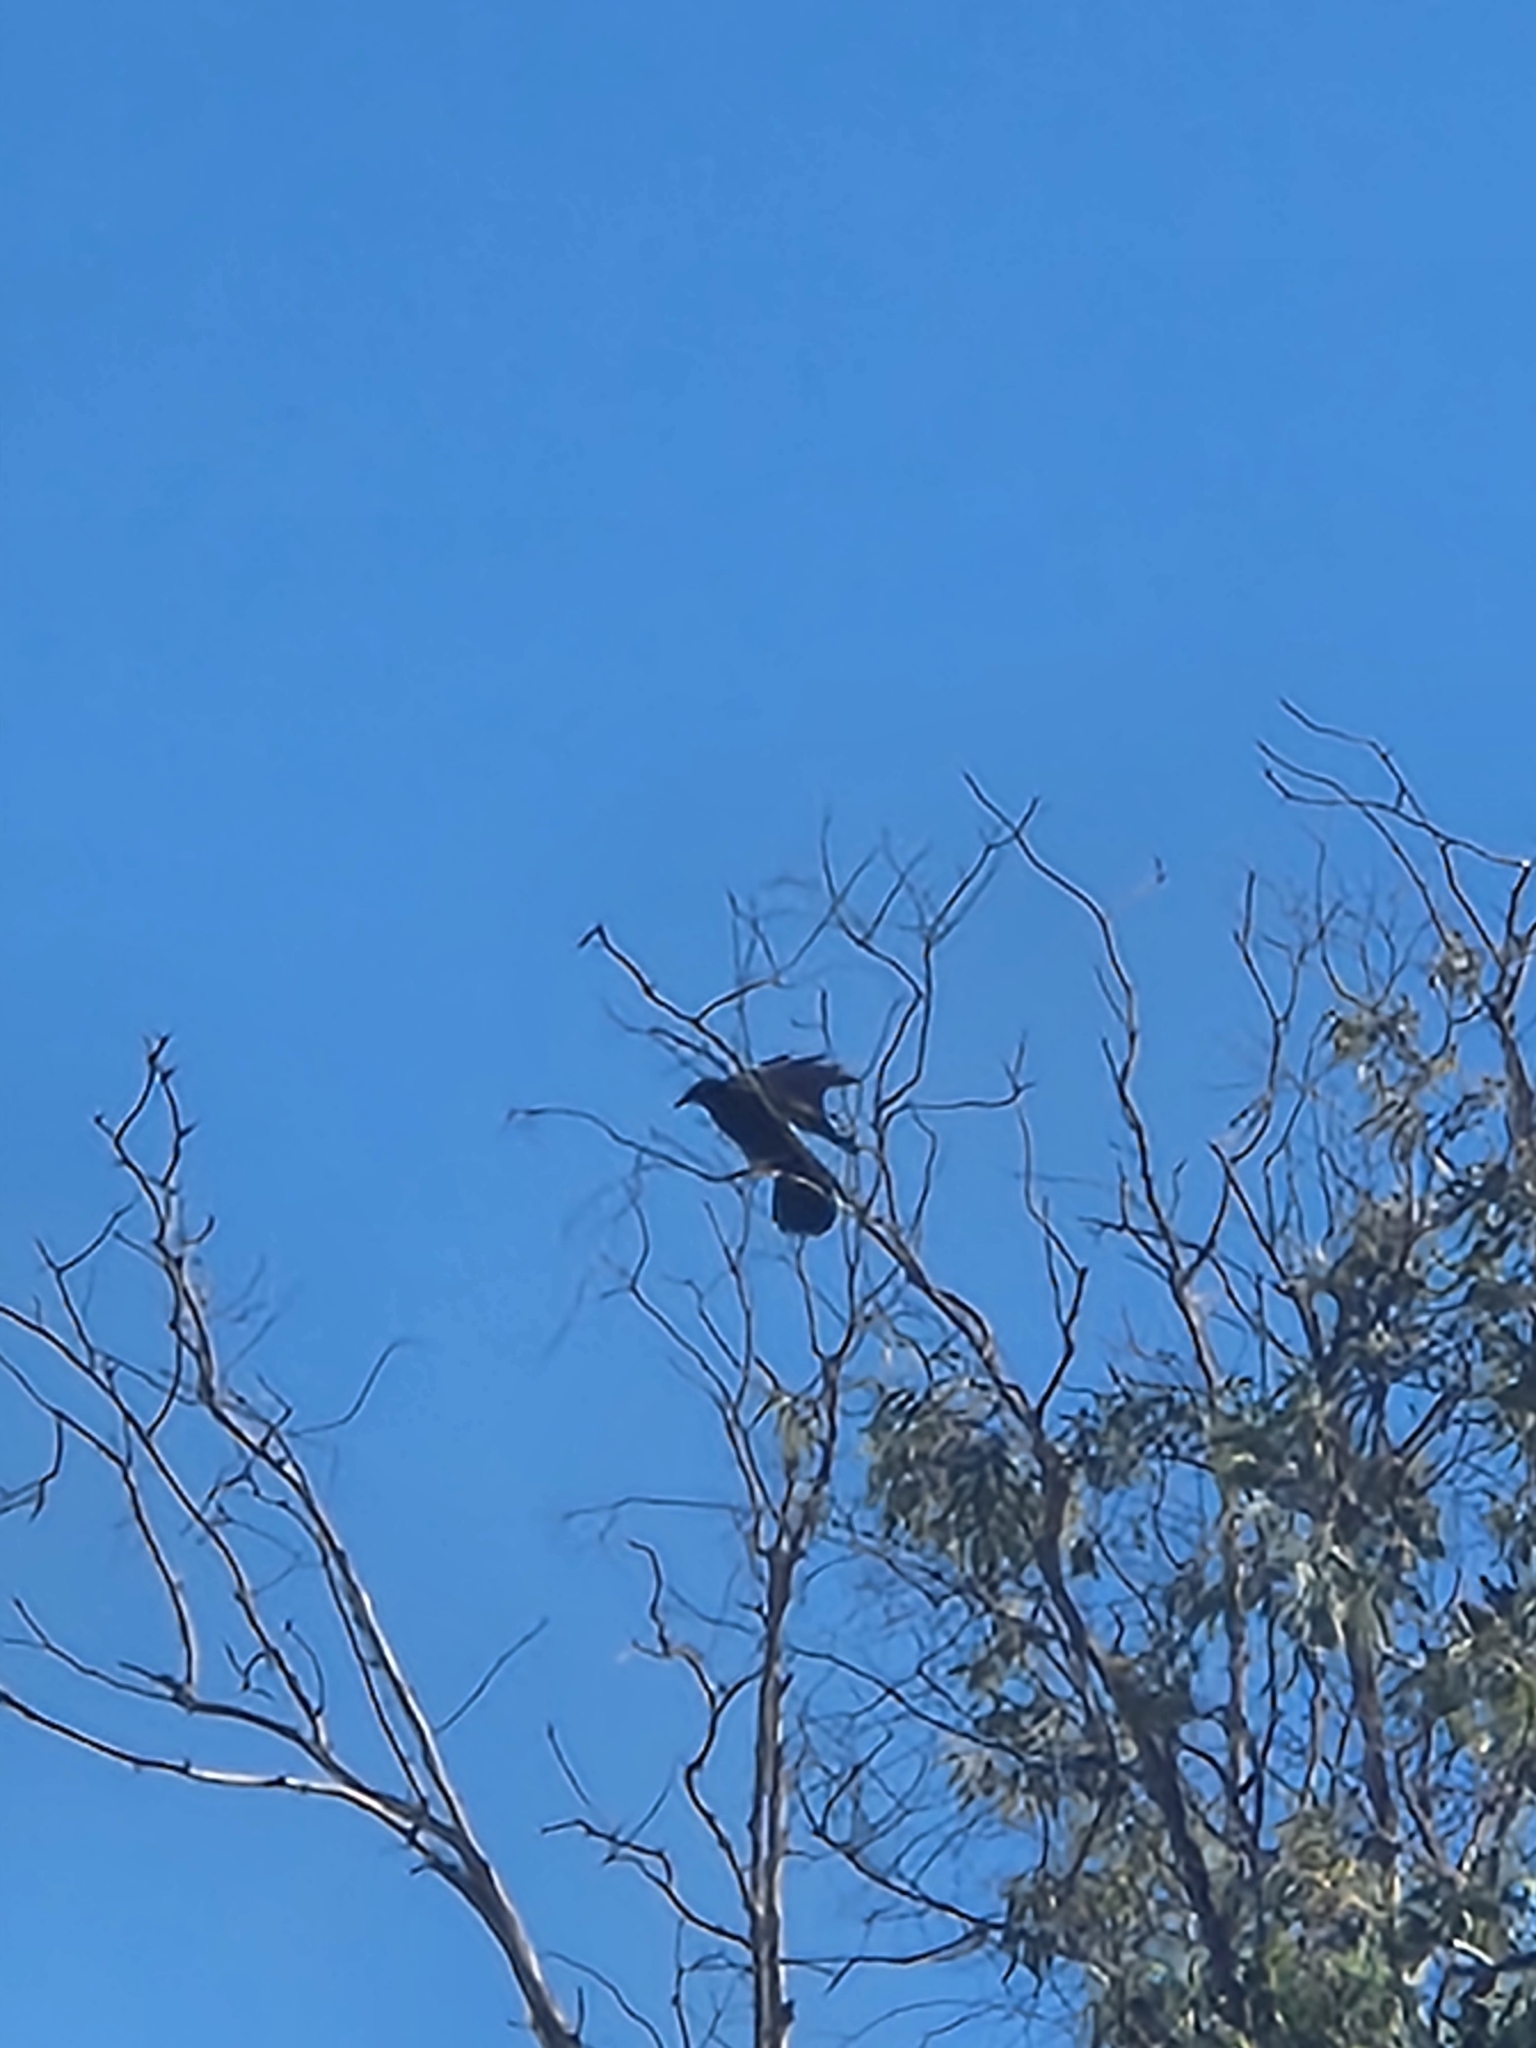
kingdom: Animalia
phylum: Chordata
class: Aves
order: Passeriformes
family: Corvidae
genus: Corvus
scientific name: Corvus corax
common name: Common raven
